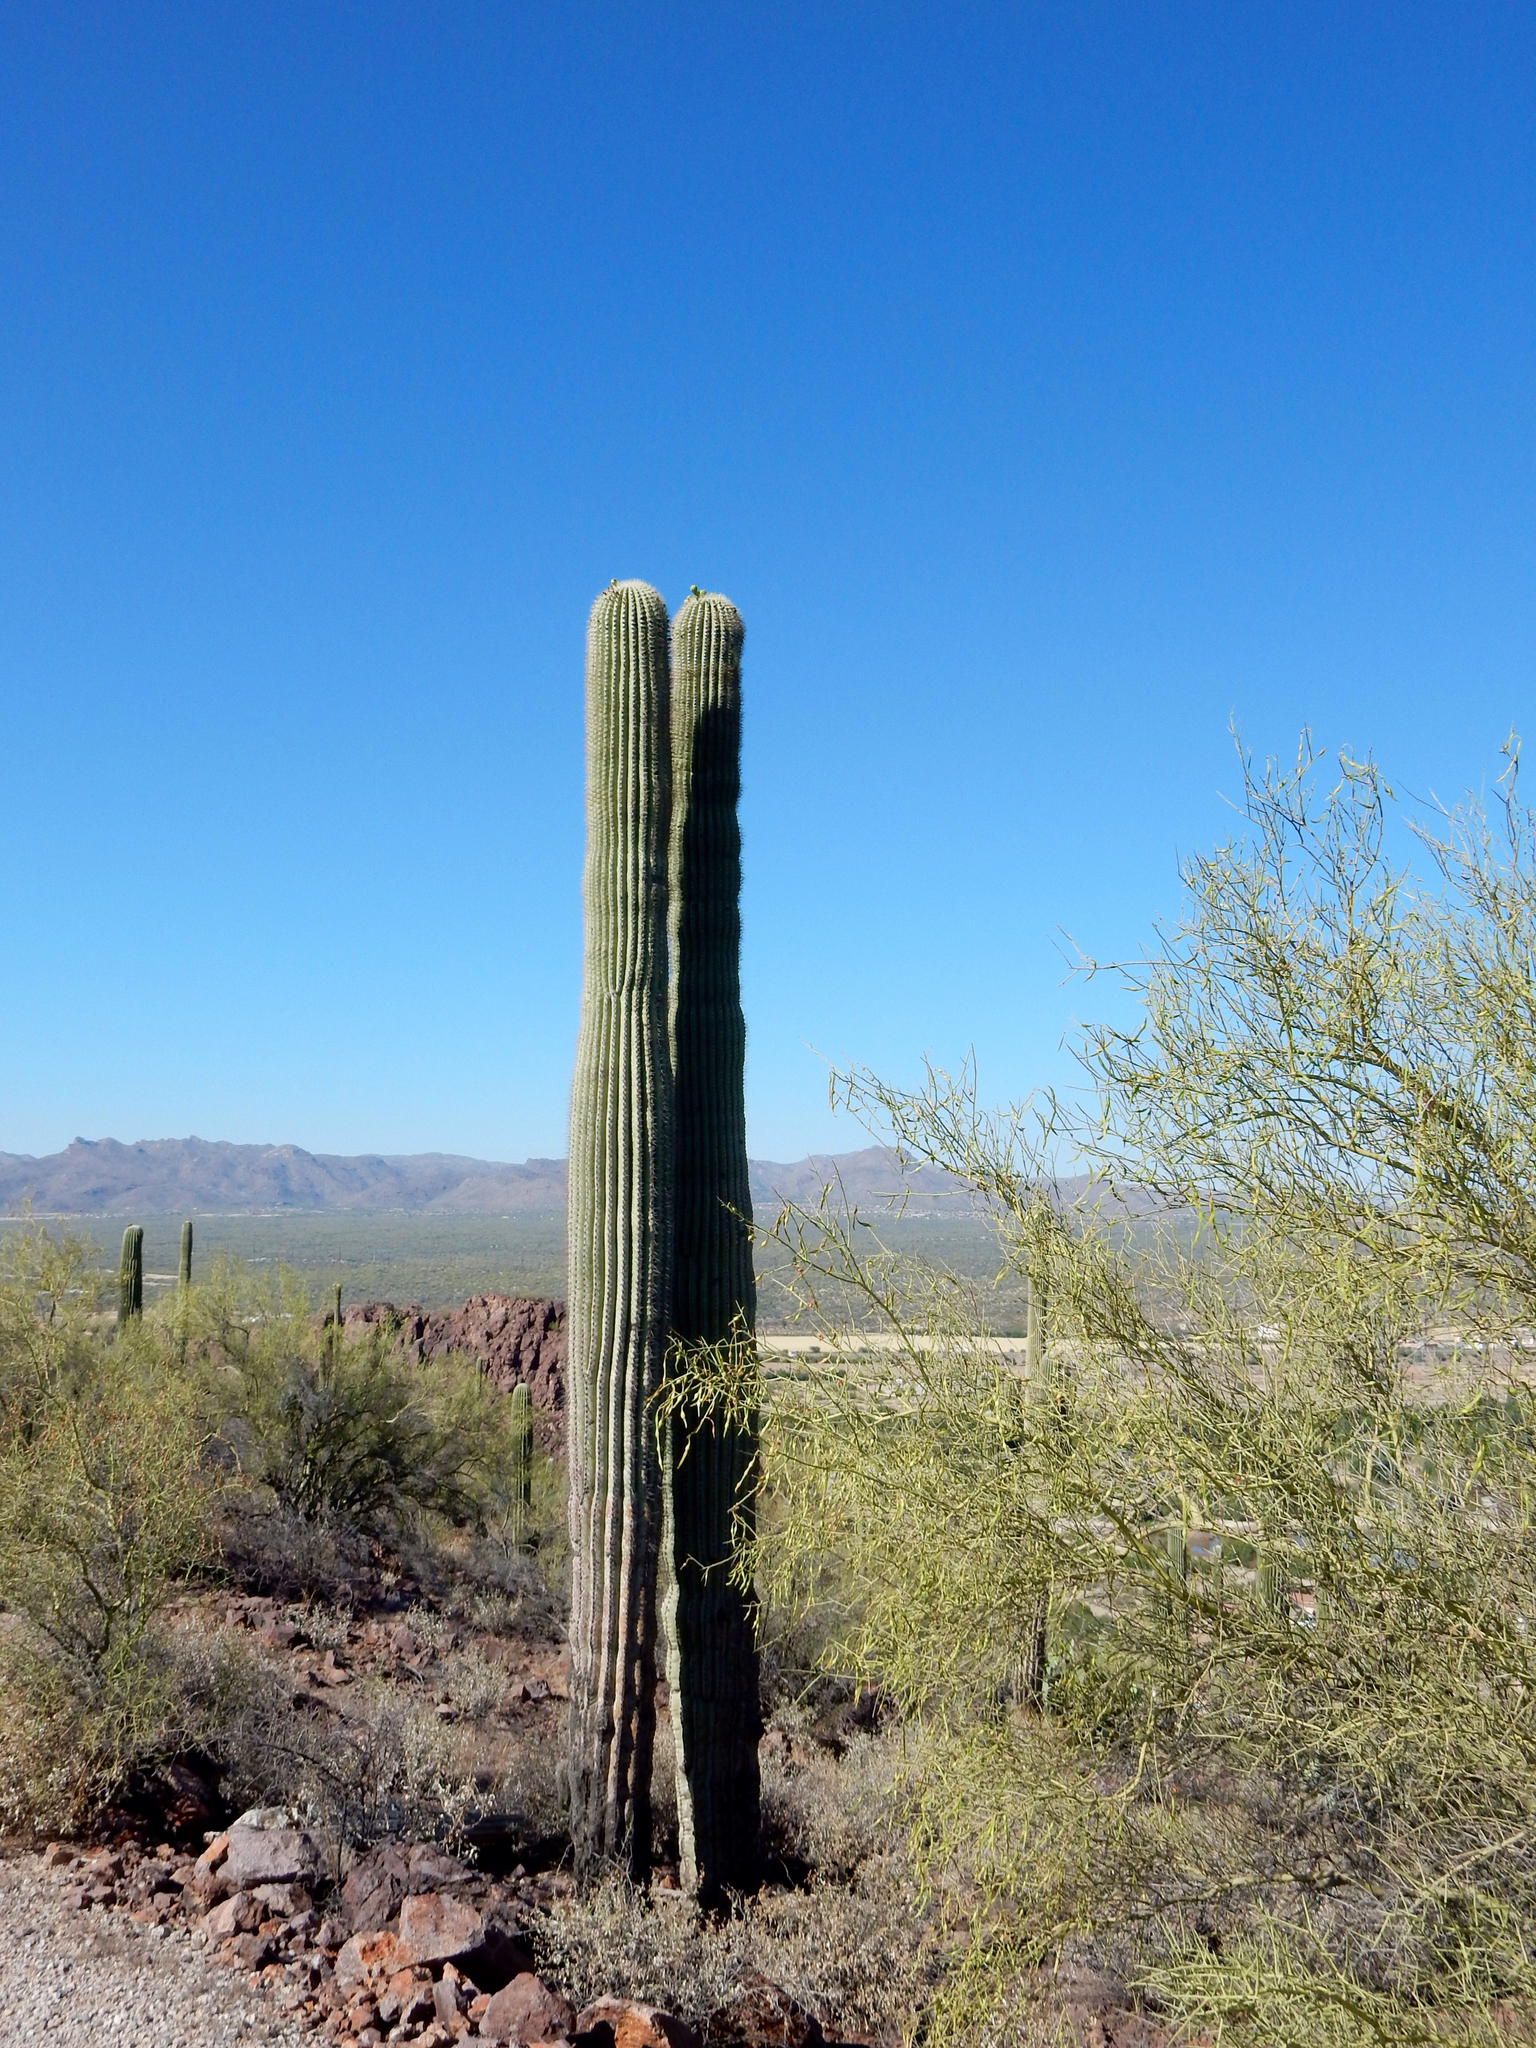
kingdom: Plantae
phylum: Tracheophyta
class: Magnoliopsida
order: Caryophyllales
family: Cactaceae
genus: Carnegiea
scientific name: Carnegiea gigantea
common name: Saguaro
